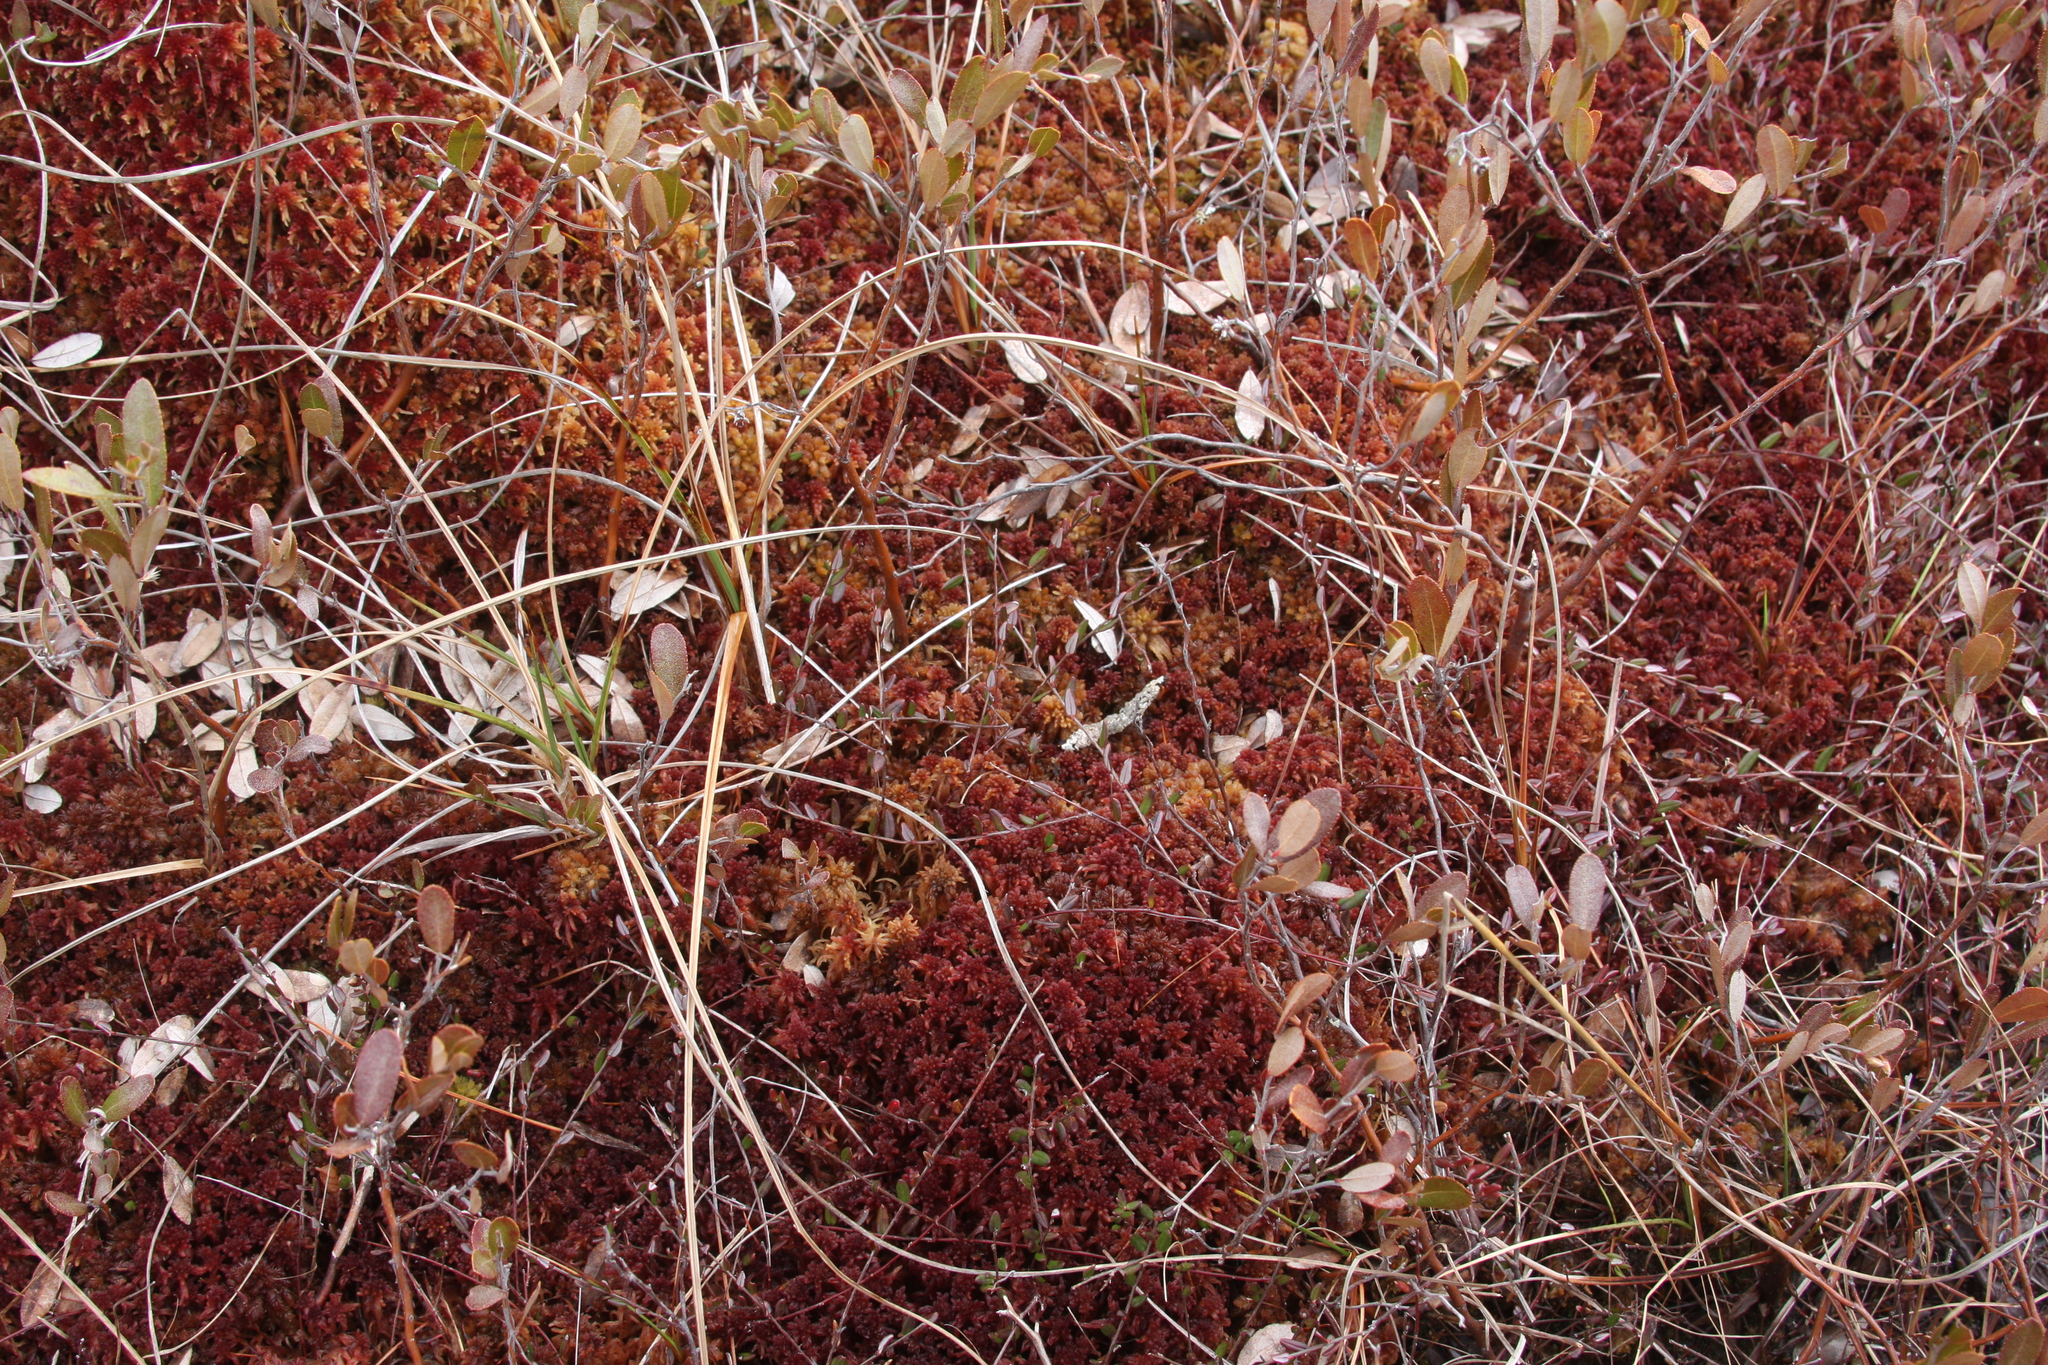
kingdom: Plantae
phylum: Tracheophyta
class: Magnoliopsida
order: Ericales
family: Ericaceae
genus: Vaccinium
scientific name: Vaccinium oxycoccos
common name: Cranberry
